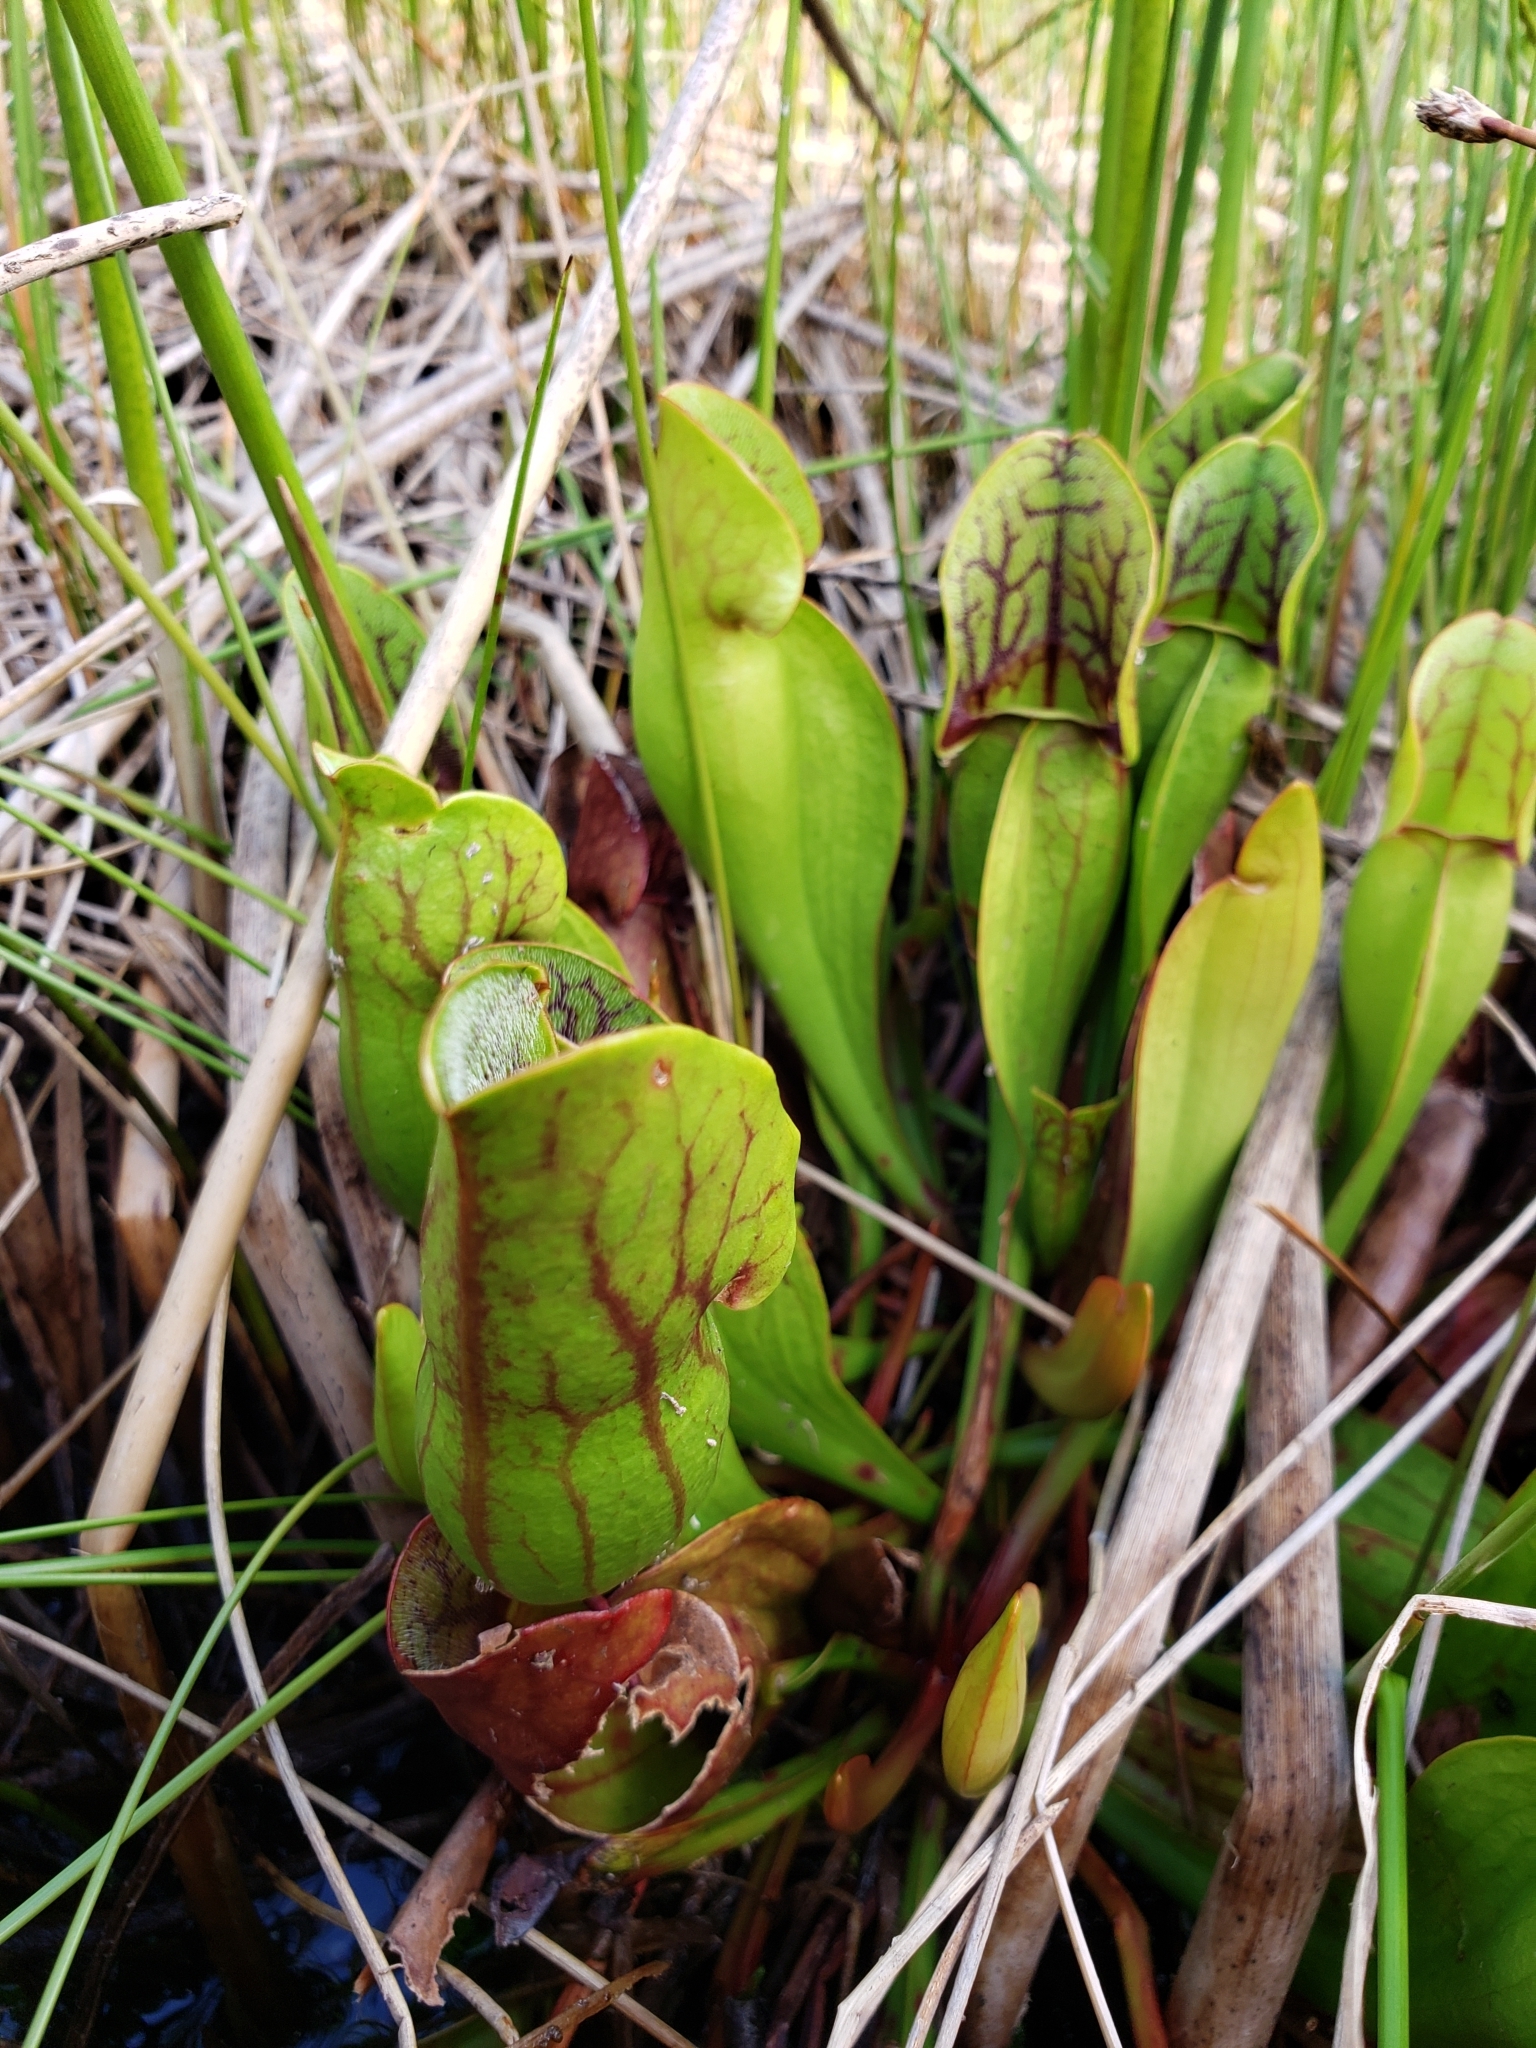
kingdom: Plantae
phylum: Tracheophyta
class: Magnoliopsida
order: Ericales
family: Sarraceniaceae
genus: Sarracenia
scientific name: Sarracenia purpurea
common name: Pitcherplant
